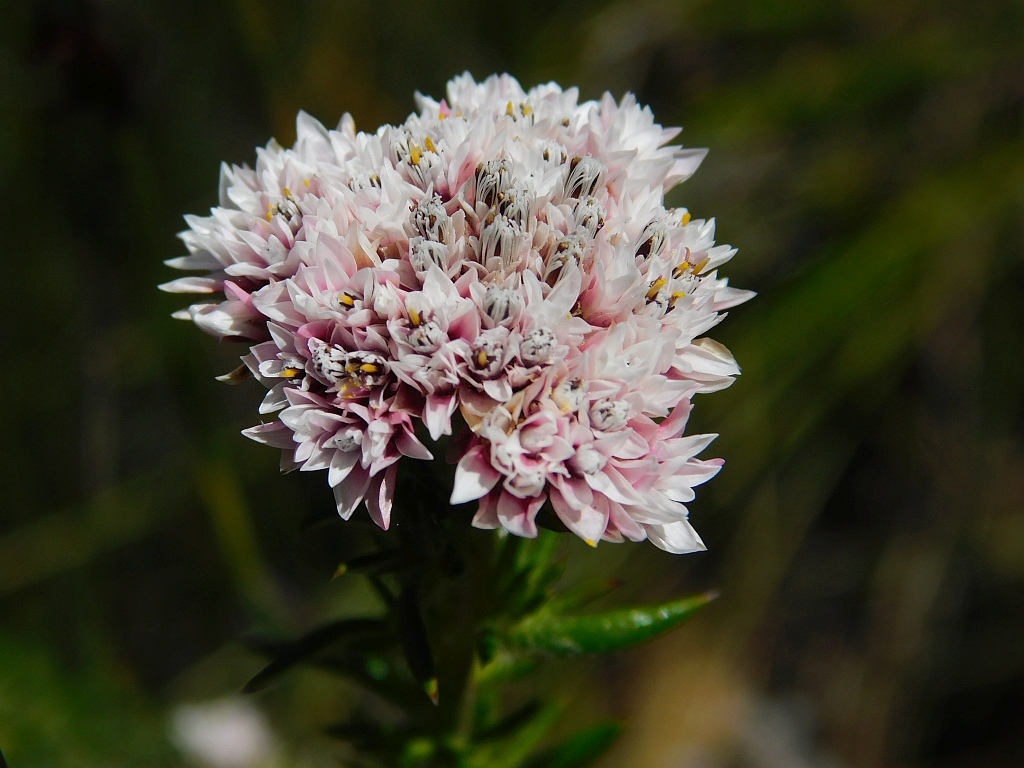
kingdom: Plantae
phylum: Tracheophyta
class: Magnoliopsida
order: Asterales
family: Asteraceae
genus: Metalasia
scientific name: Metalasia inversa
